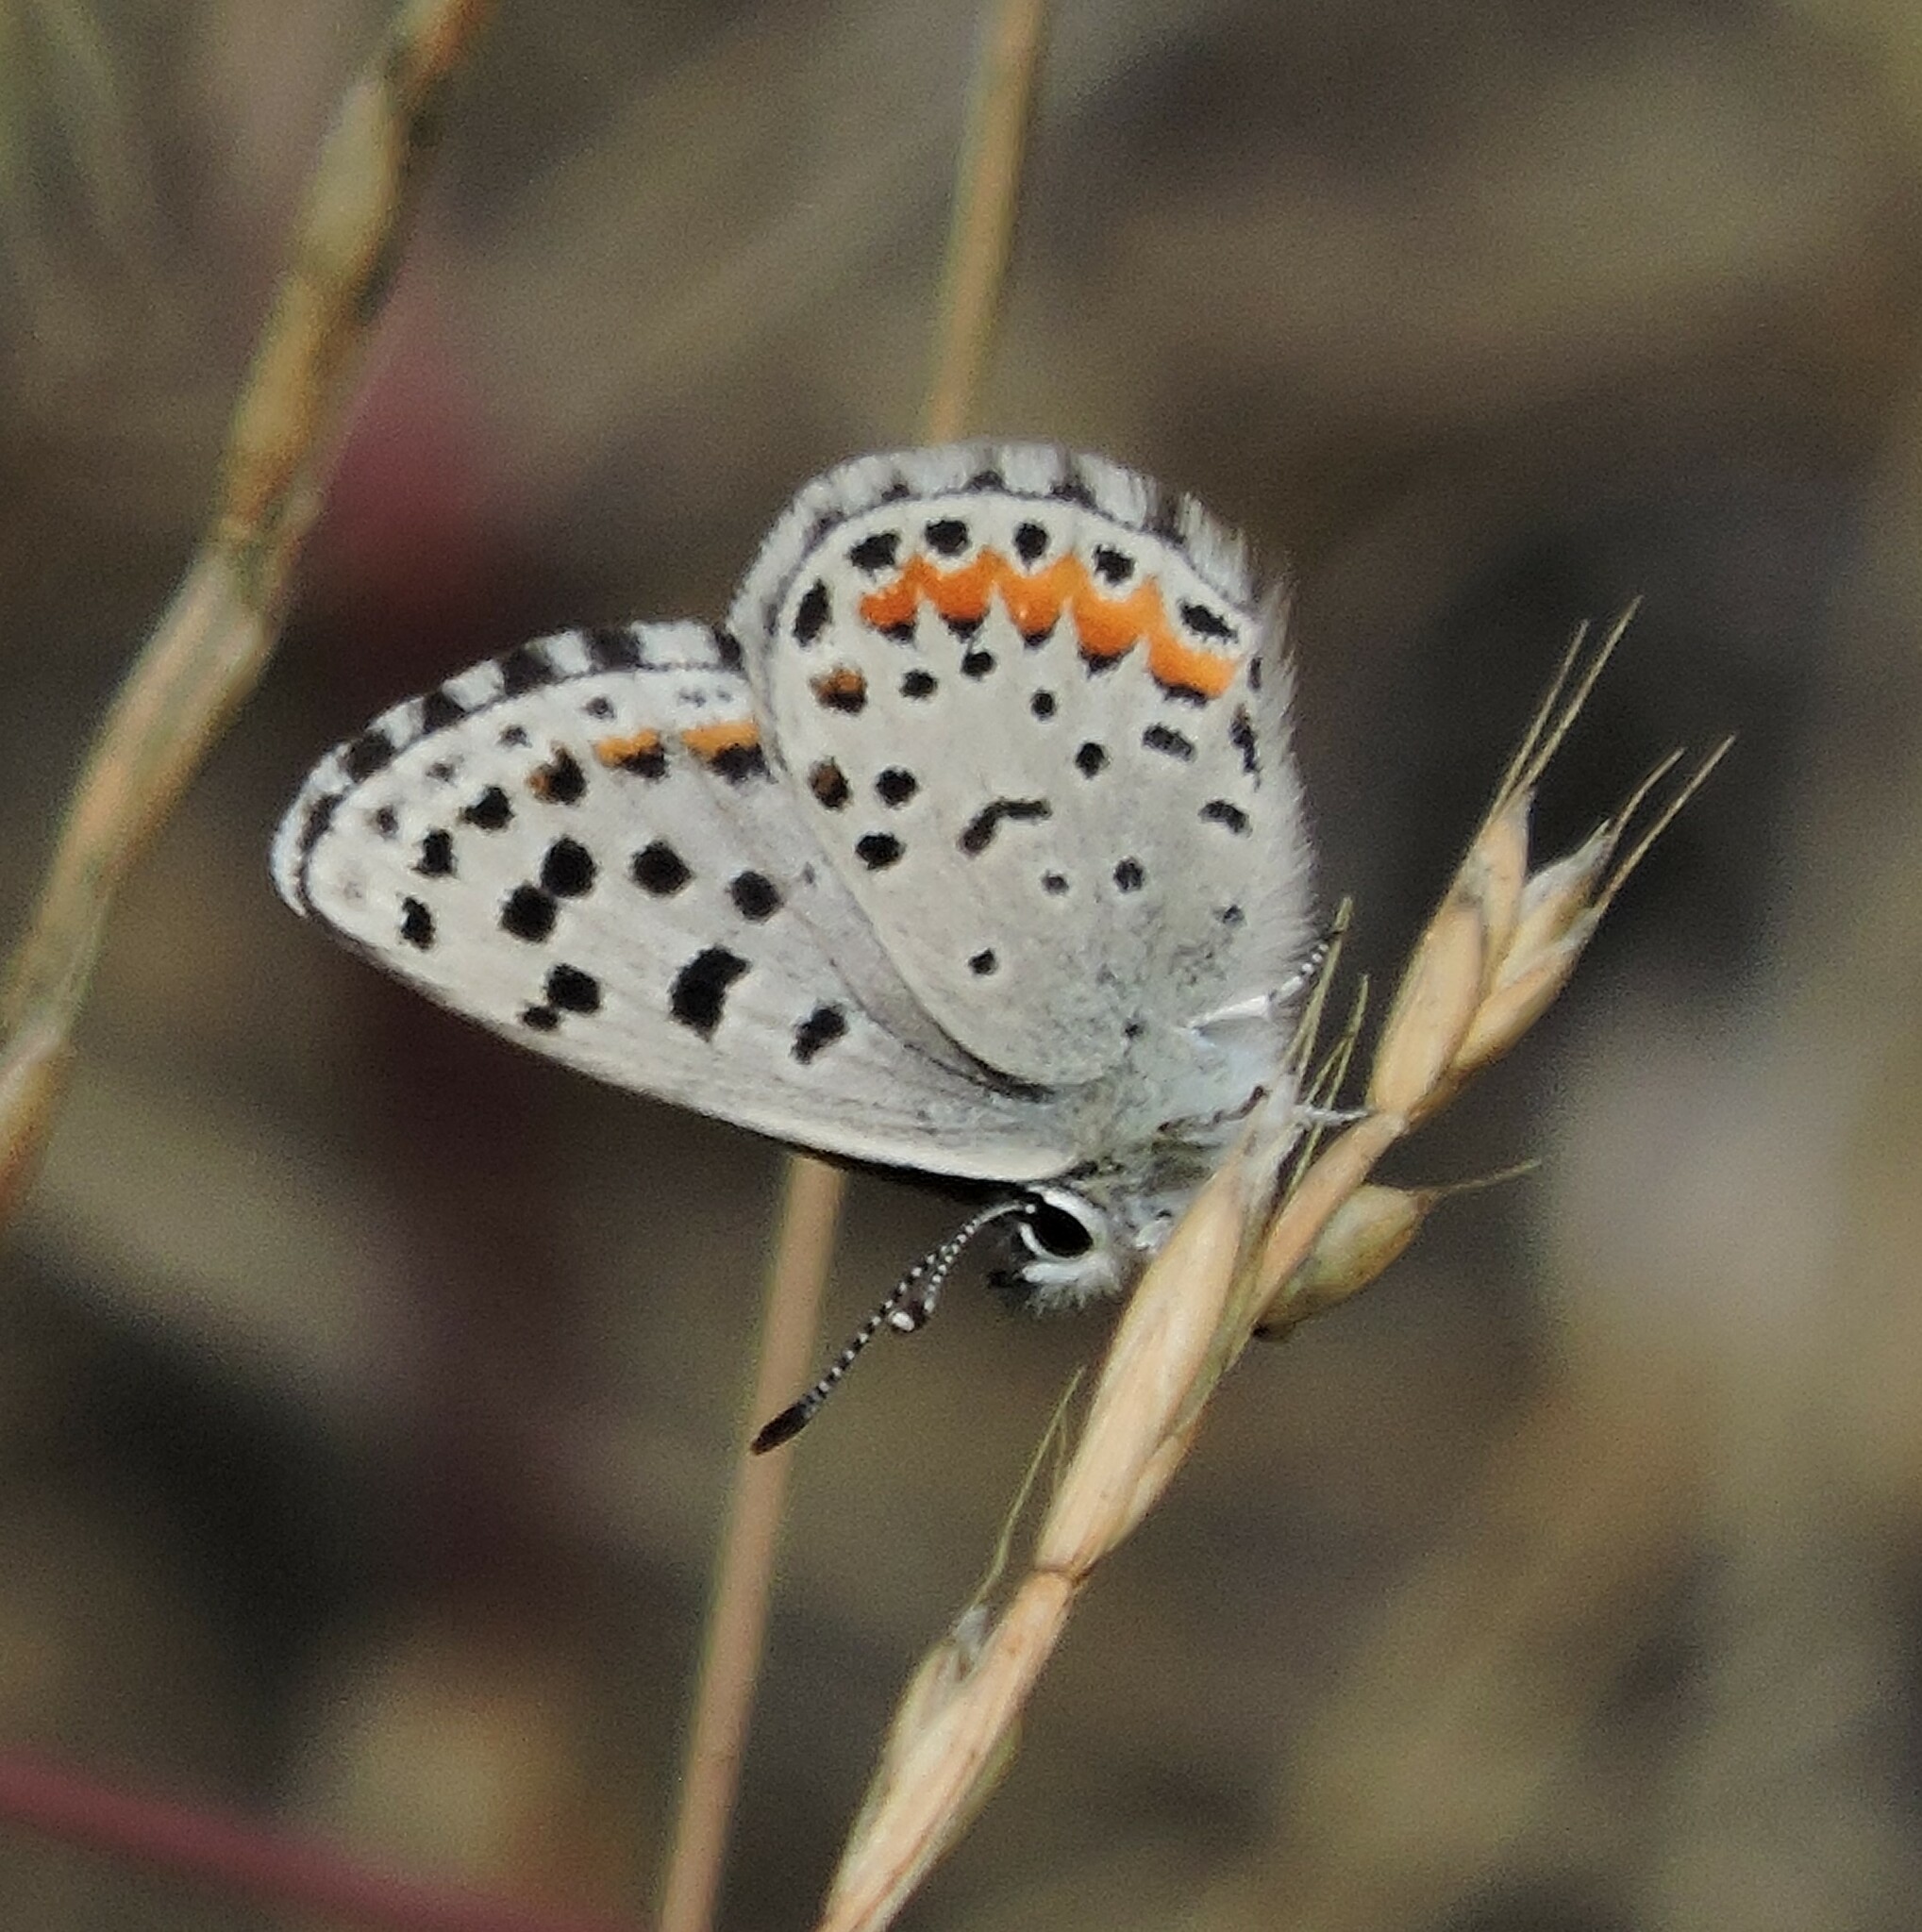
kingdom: Animalia
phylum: Arthropoda
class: Insecta
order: Lepidoptera
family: Lycaenidae
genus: Euphilotes
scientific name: Euphilotes enoptes
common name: Dotted blue
